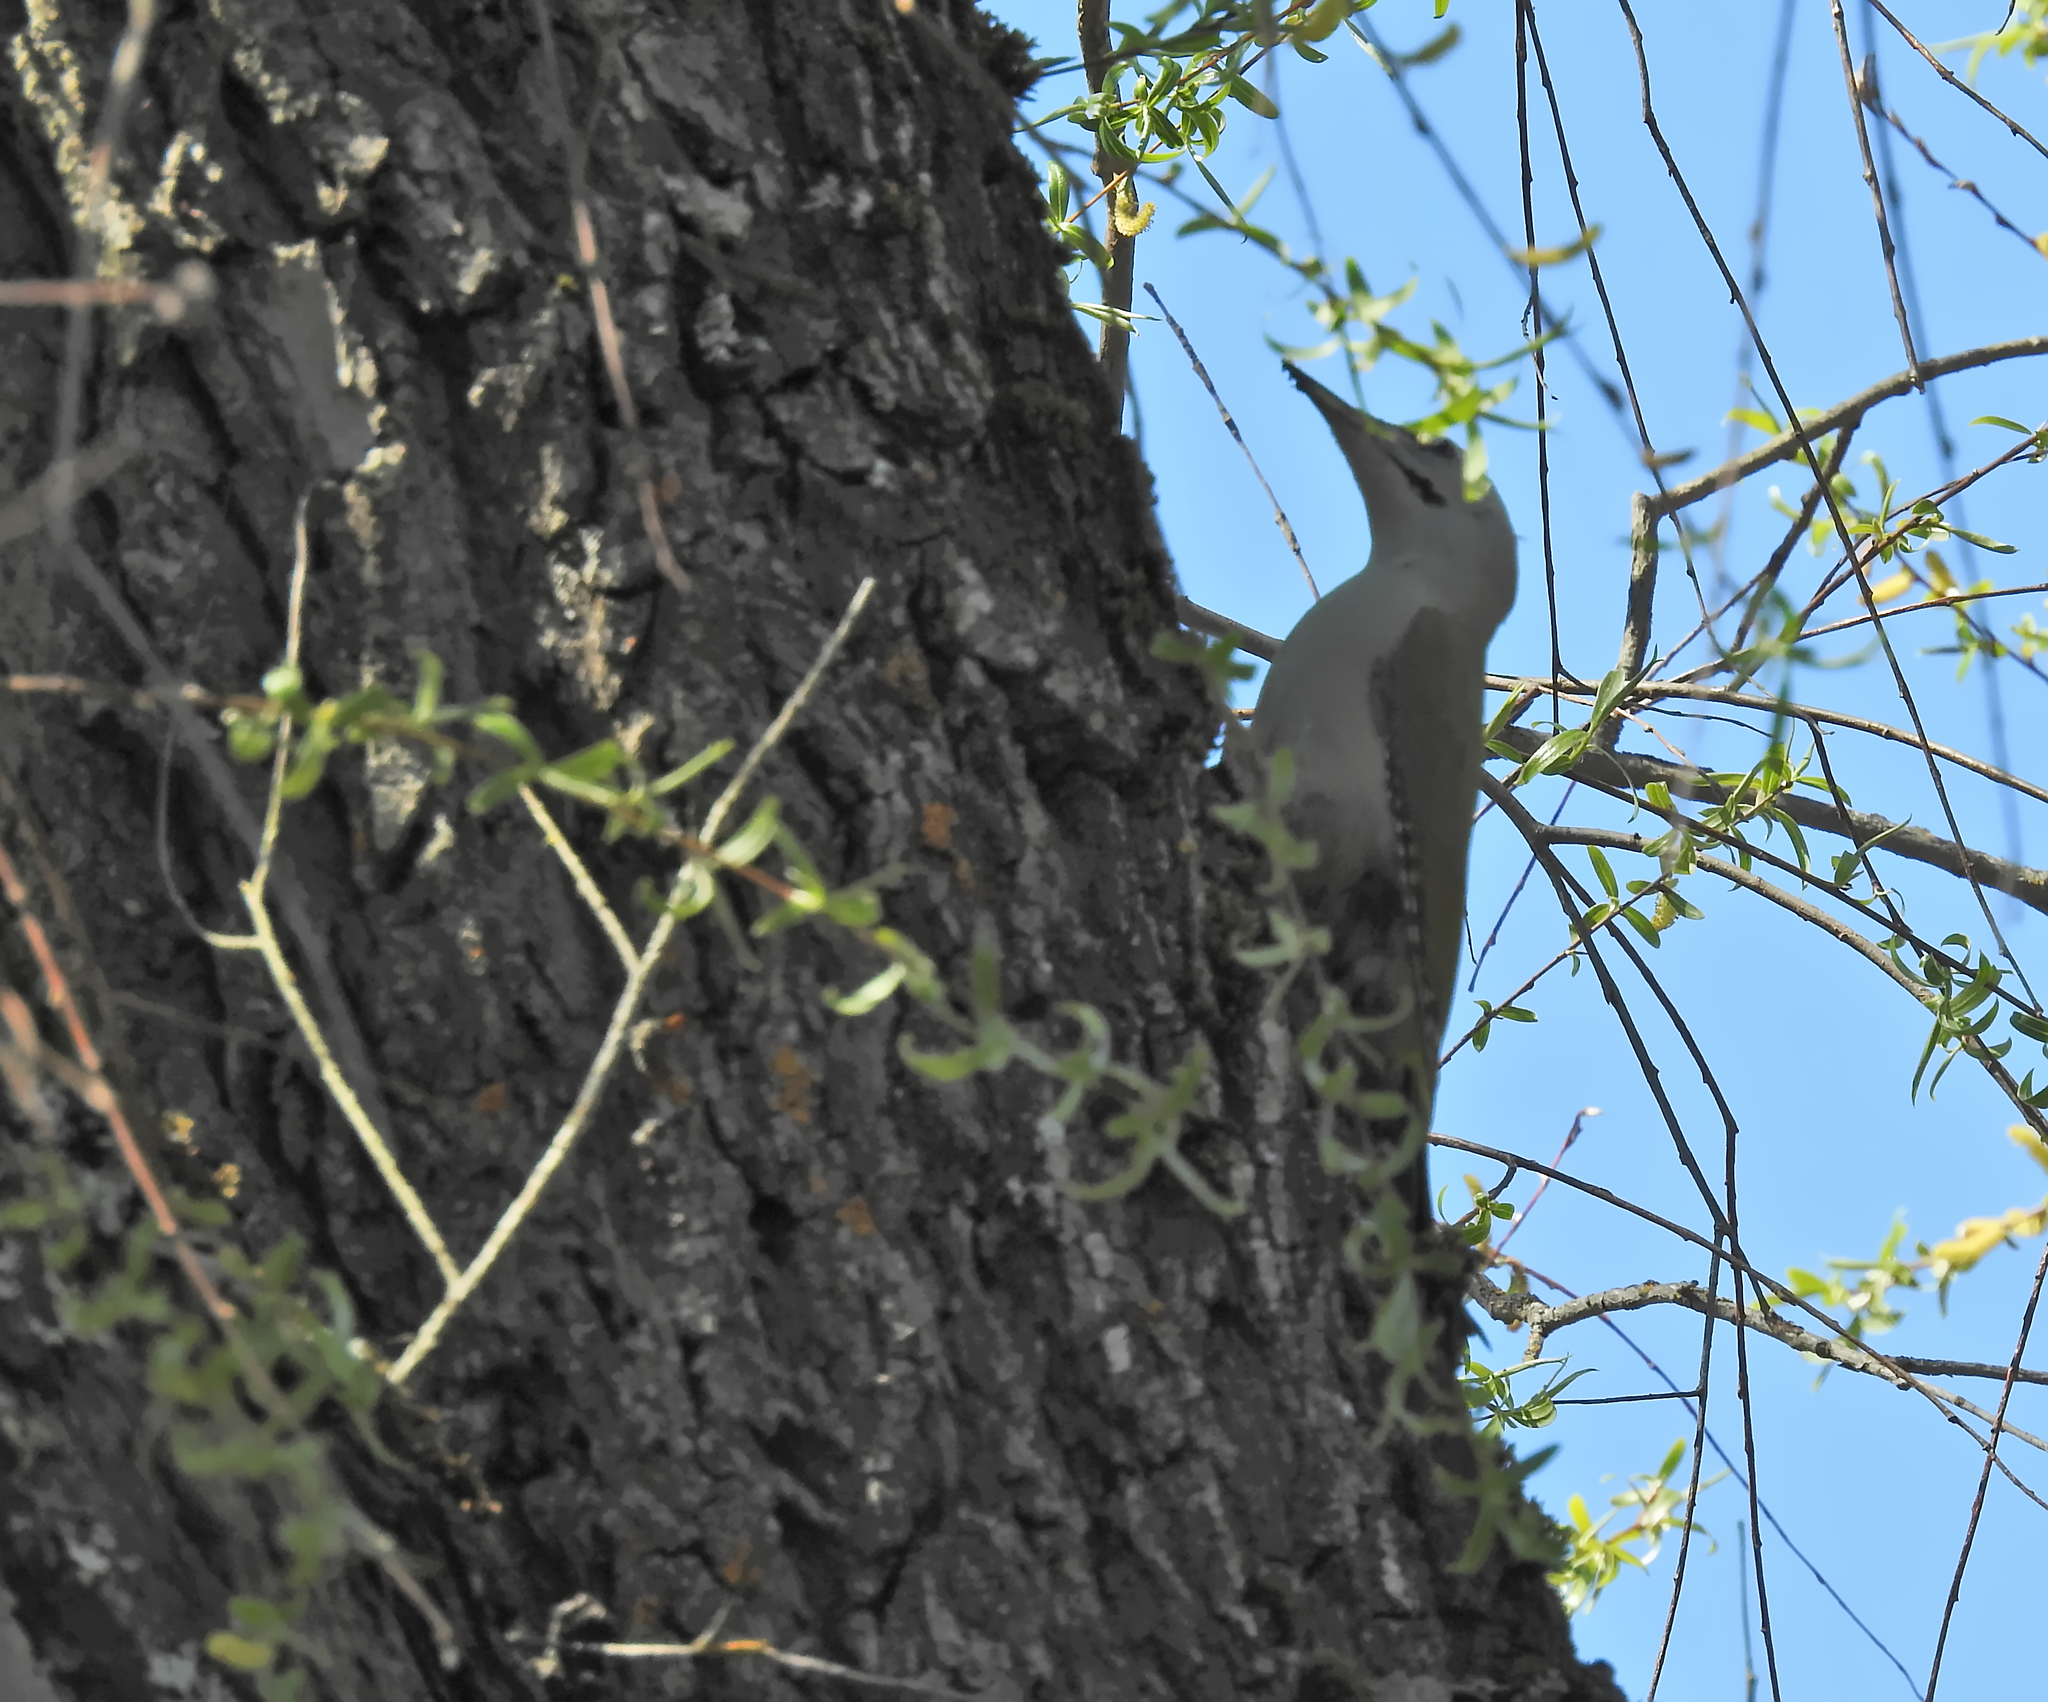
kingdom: Animalia
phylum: Chordata
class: Aves
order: Piciformes
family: Picidae
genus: Picus
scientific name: Picus canus
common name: Grey-headed woodpecker
